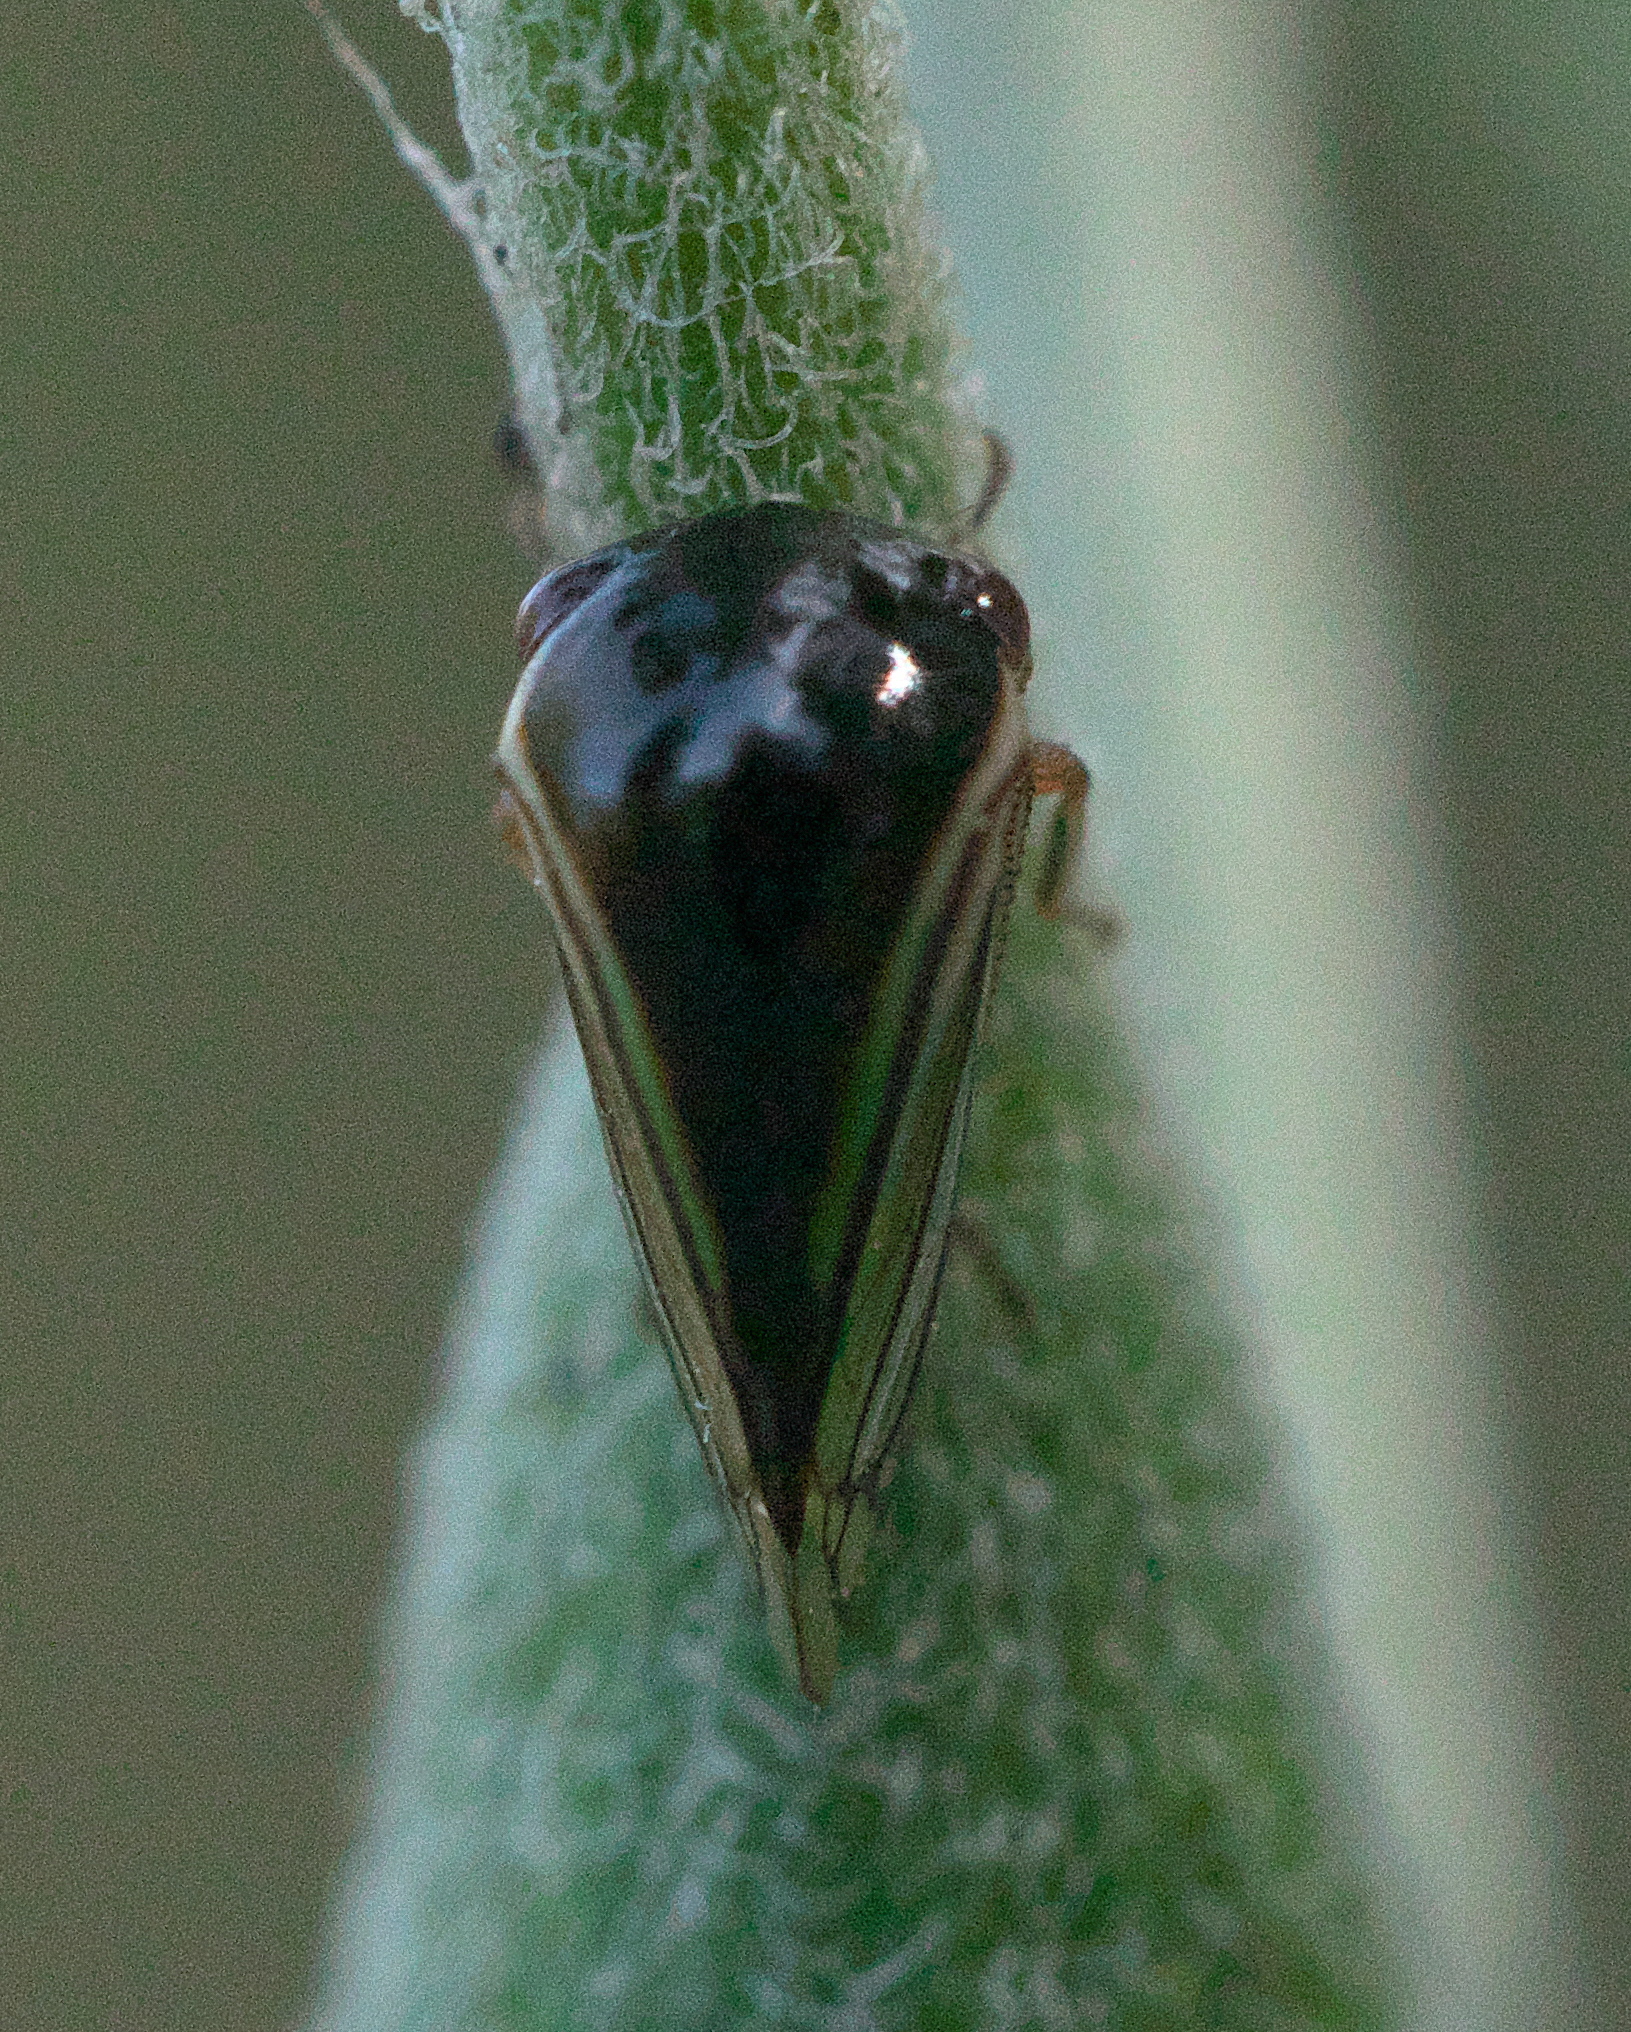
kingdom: Animalia
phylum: Arthropoda
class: Insecta
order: Hemiptera
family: Membracidae
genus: Acutalis
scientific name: Acutalis tartarea
